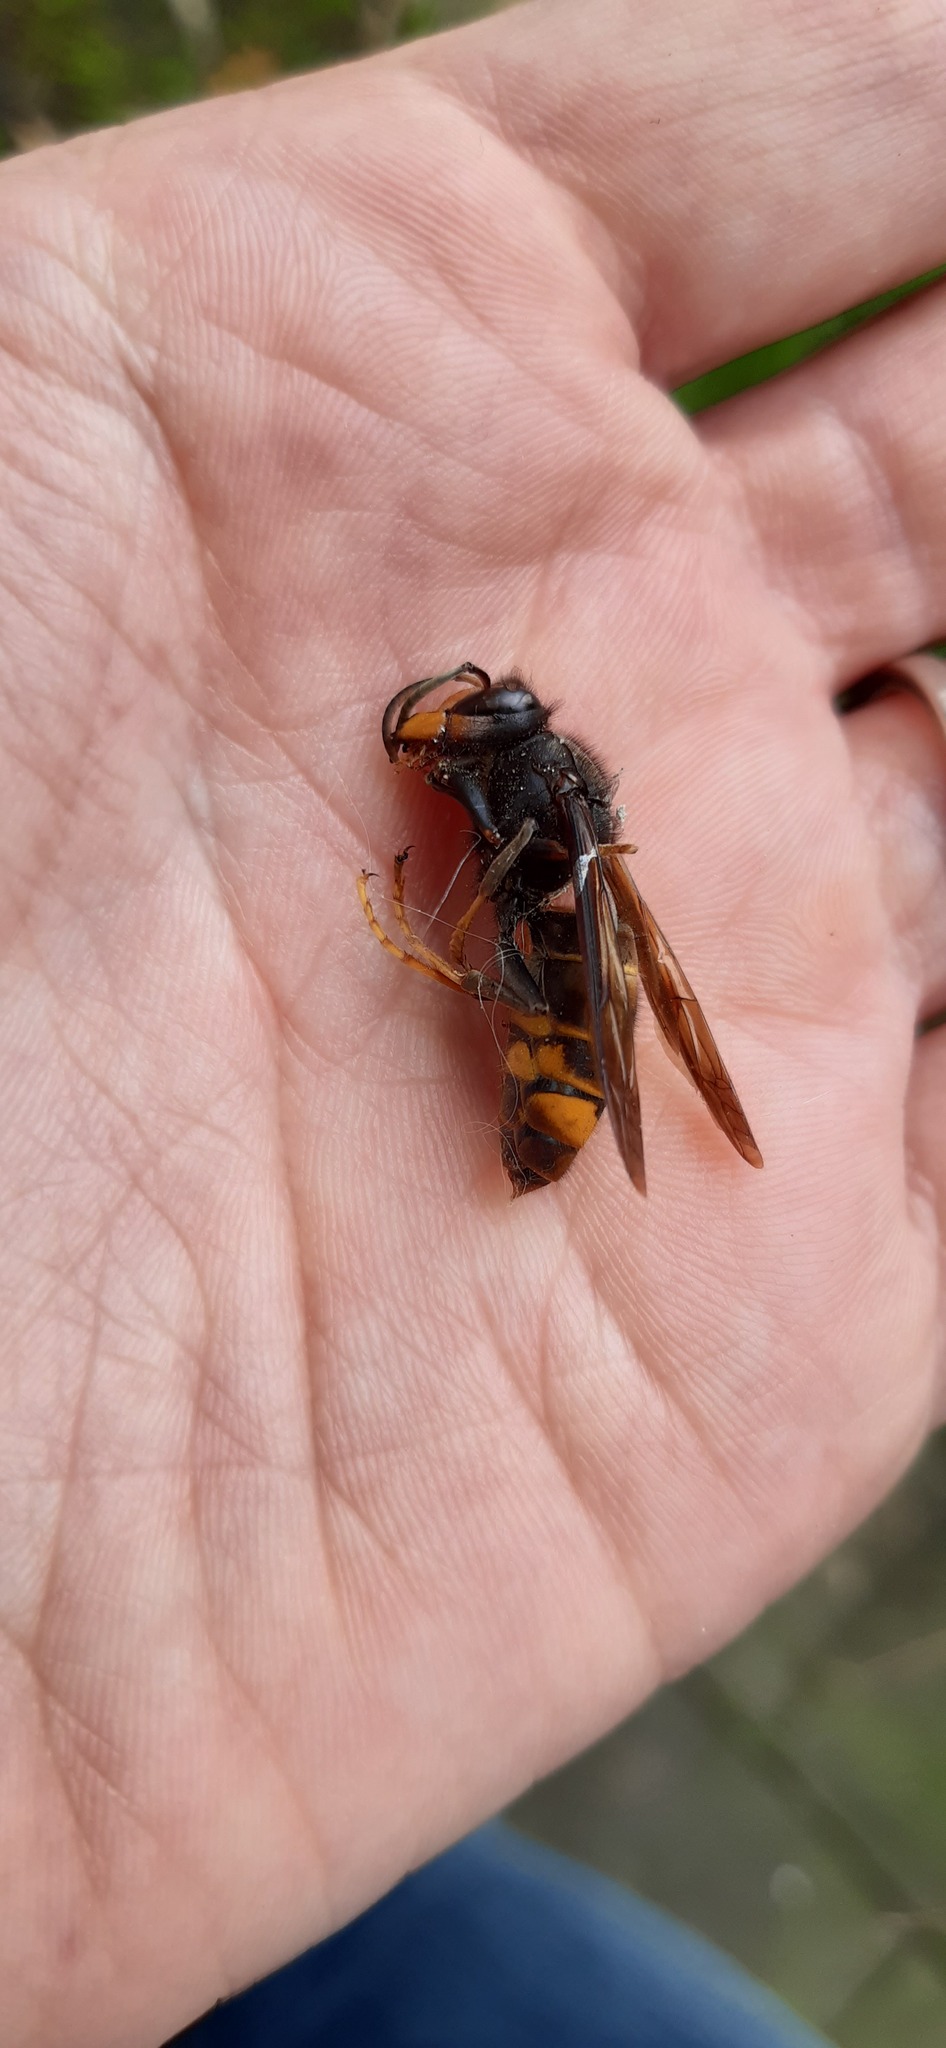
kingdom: Animalia
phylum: Arthropoda
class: Insecta
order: Hymenoptera
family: Vespidae
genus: Vespa
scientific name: Vespa velutina
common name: Asian hornet
